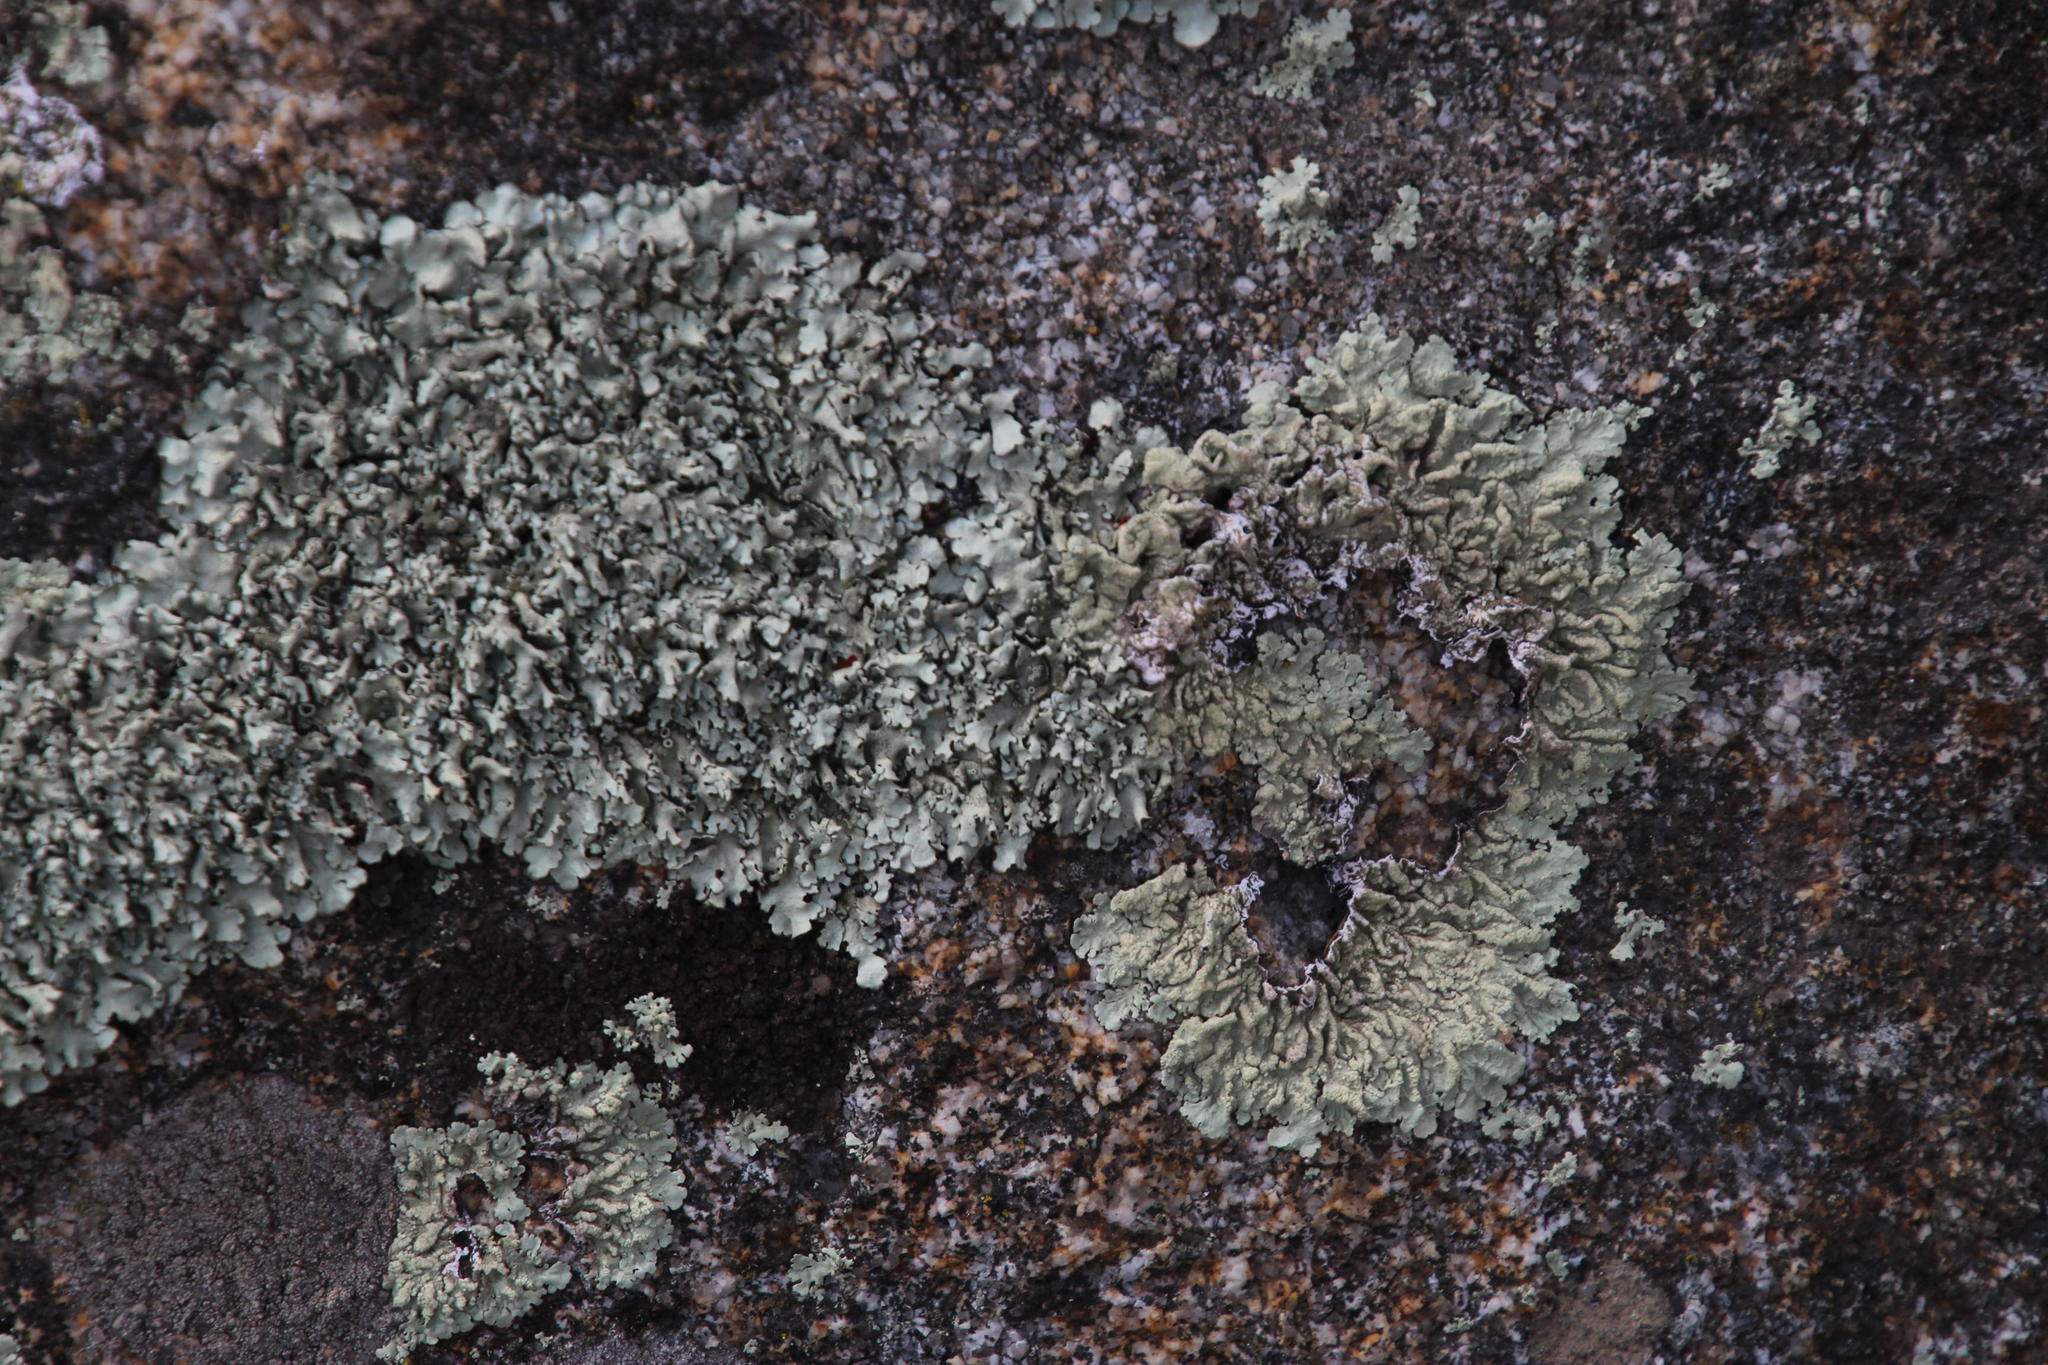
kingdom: Fungi
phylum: Ascomycota
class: Lecanoromycetes
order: Lecanorales
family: Parmeliaceae
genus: Flavoparmelia
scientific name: Flavoparmelia soredians
